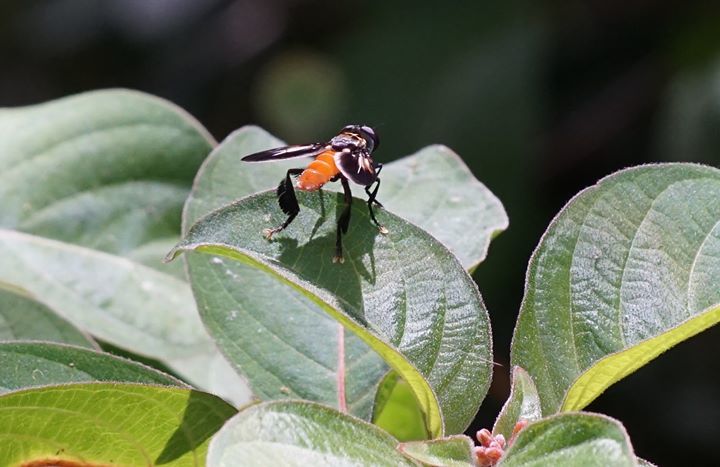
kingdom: Animalia
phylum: Arthropoda
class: Insecta
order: Diptera
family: Tachinidae
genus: Trichopoda
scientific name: Trichopoda pennipes
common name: Tachinid fly
